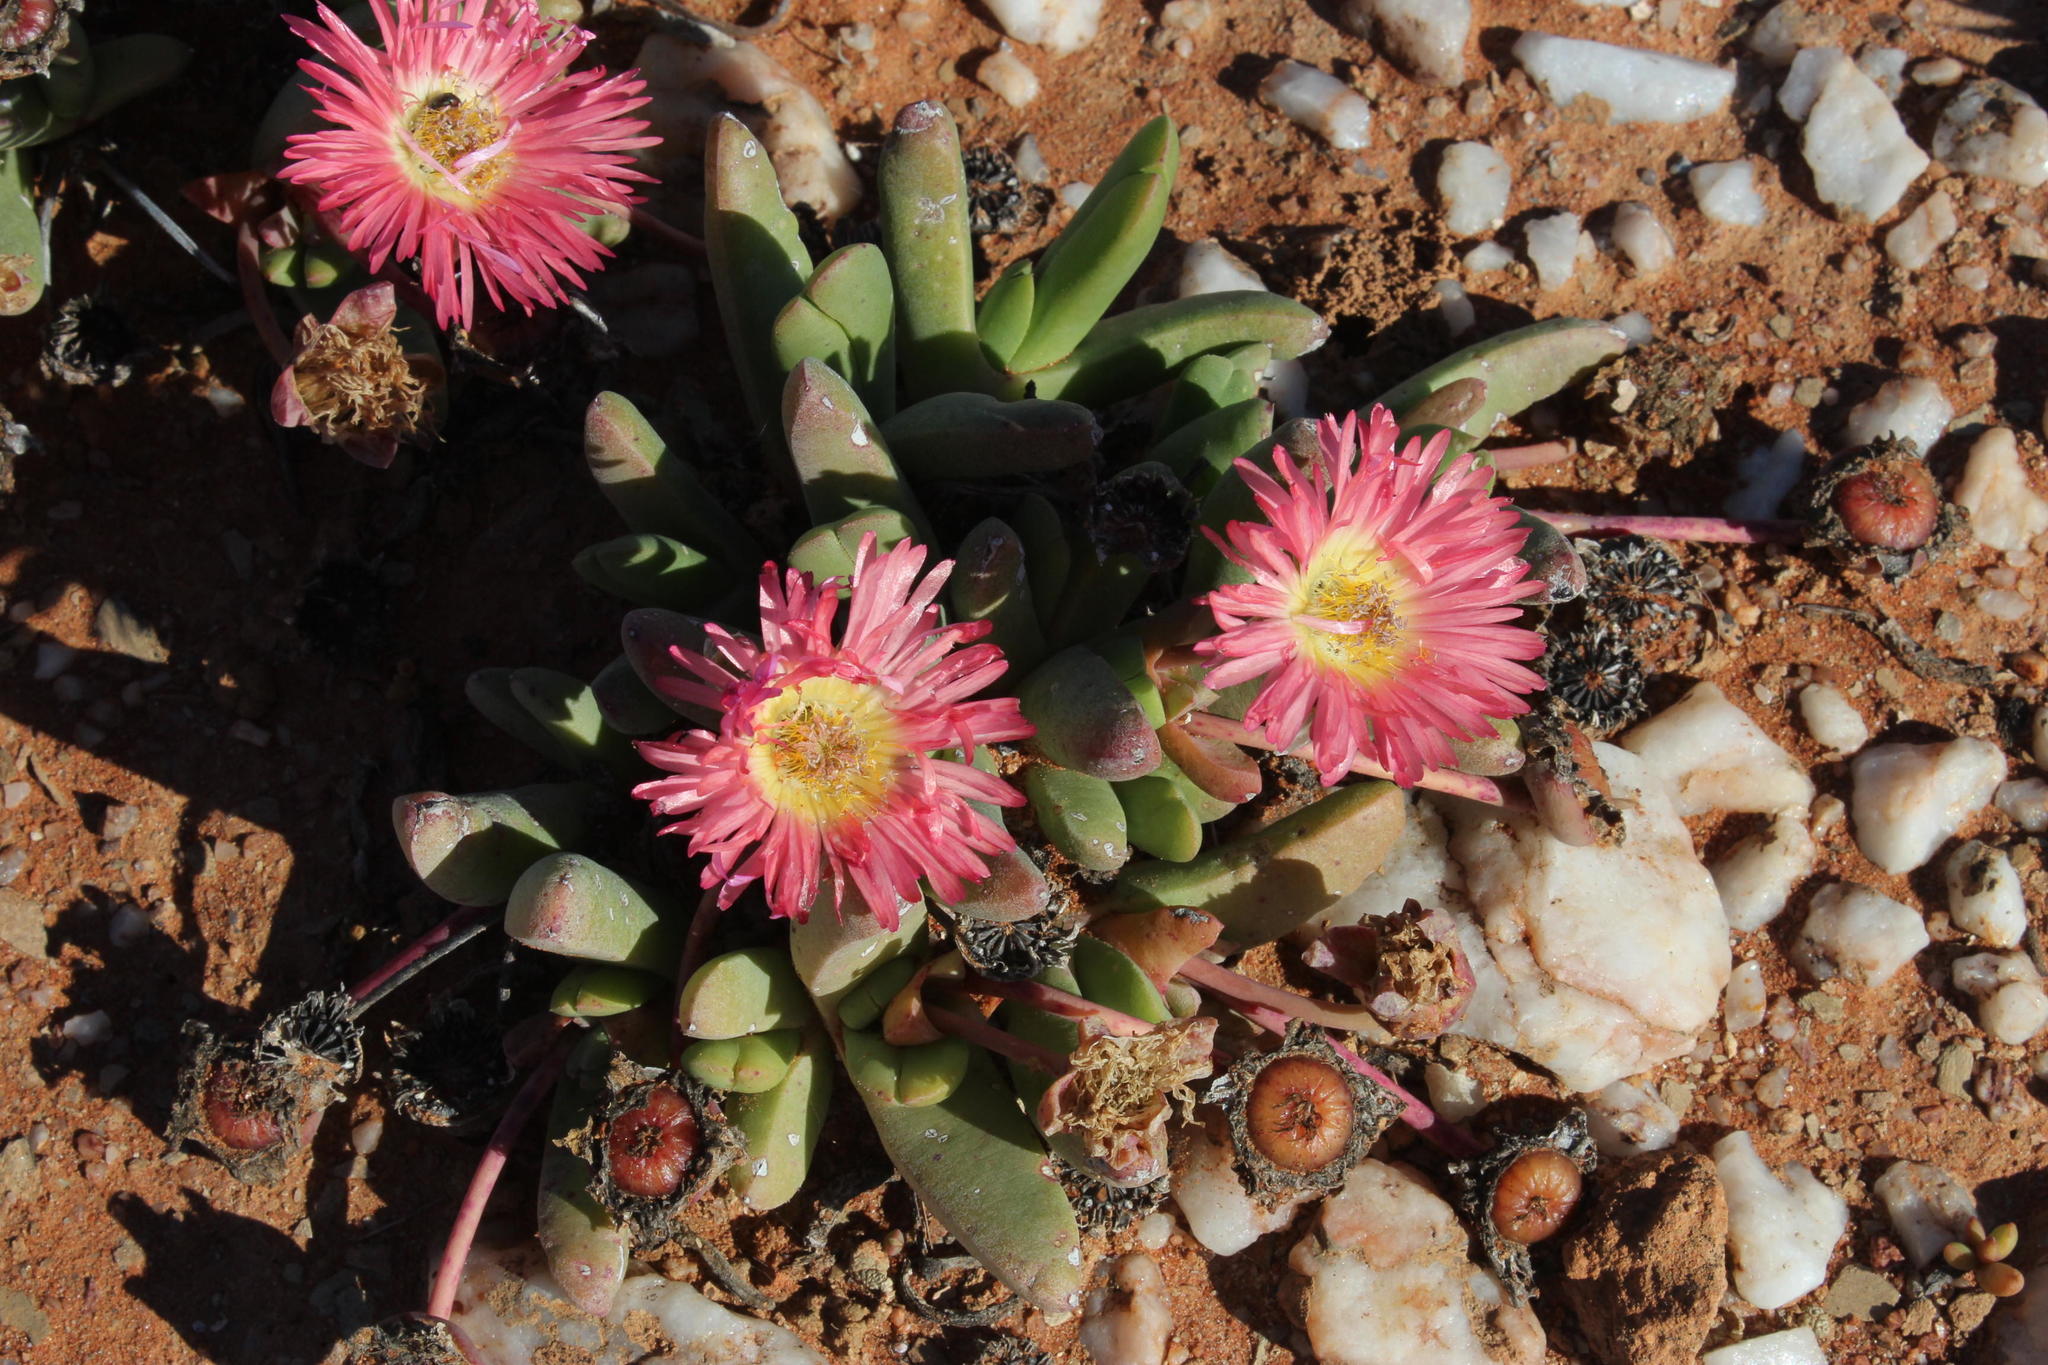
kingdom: Plantae
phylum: Tracheophyta
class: Magnoliopsida
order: Caryophyllales
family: Aizoaceae
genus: Cephalophyllum
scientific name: Cephalophyllum spissum
